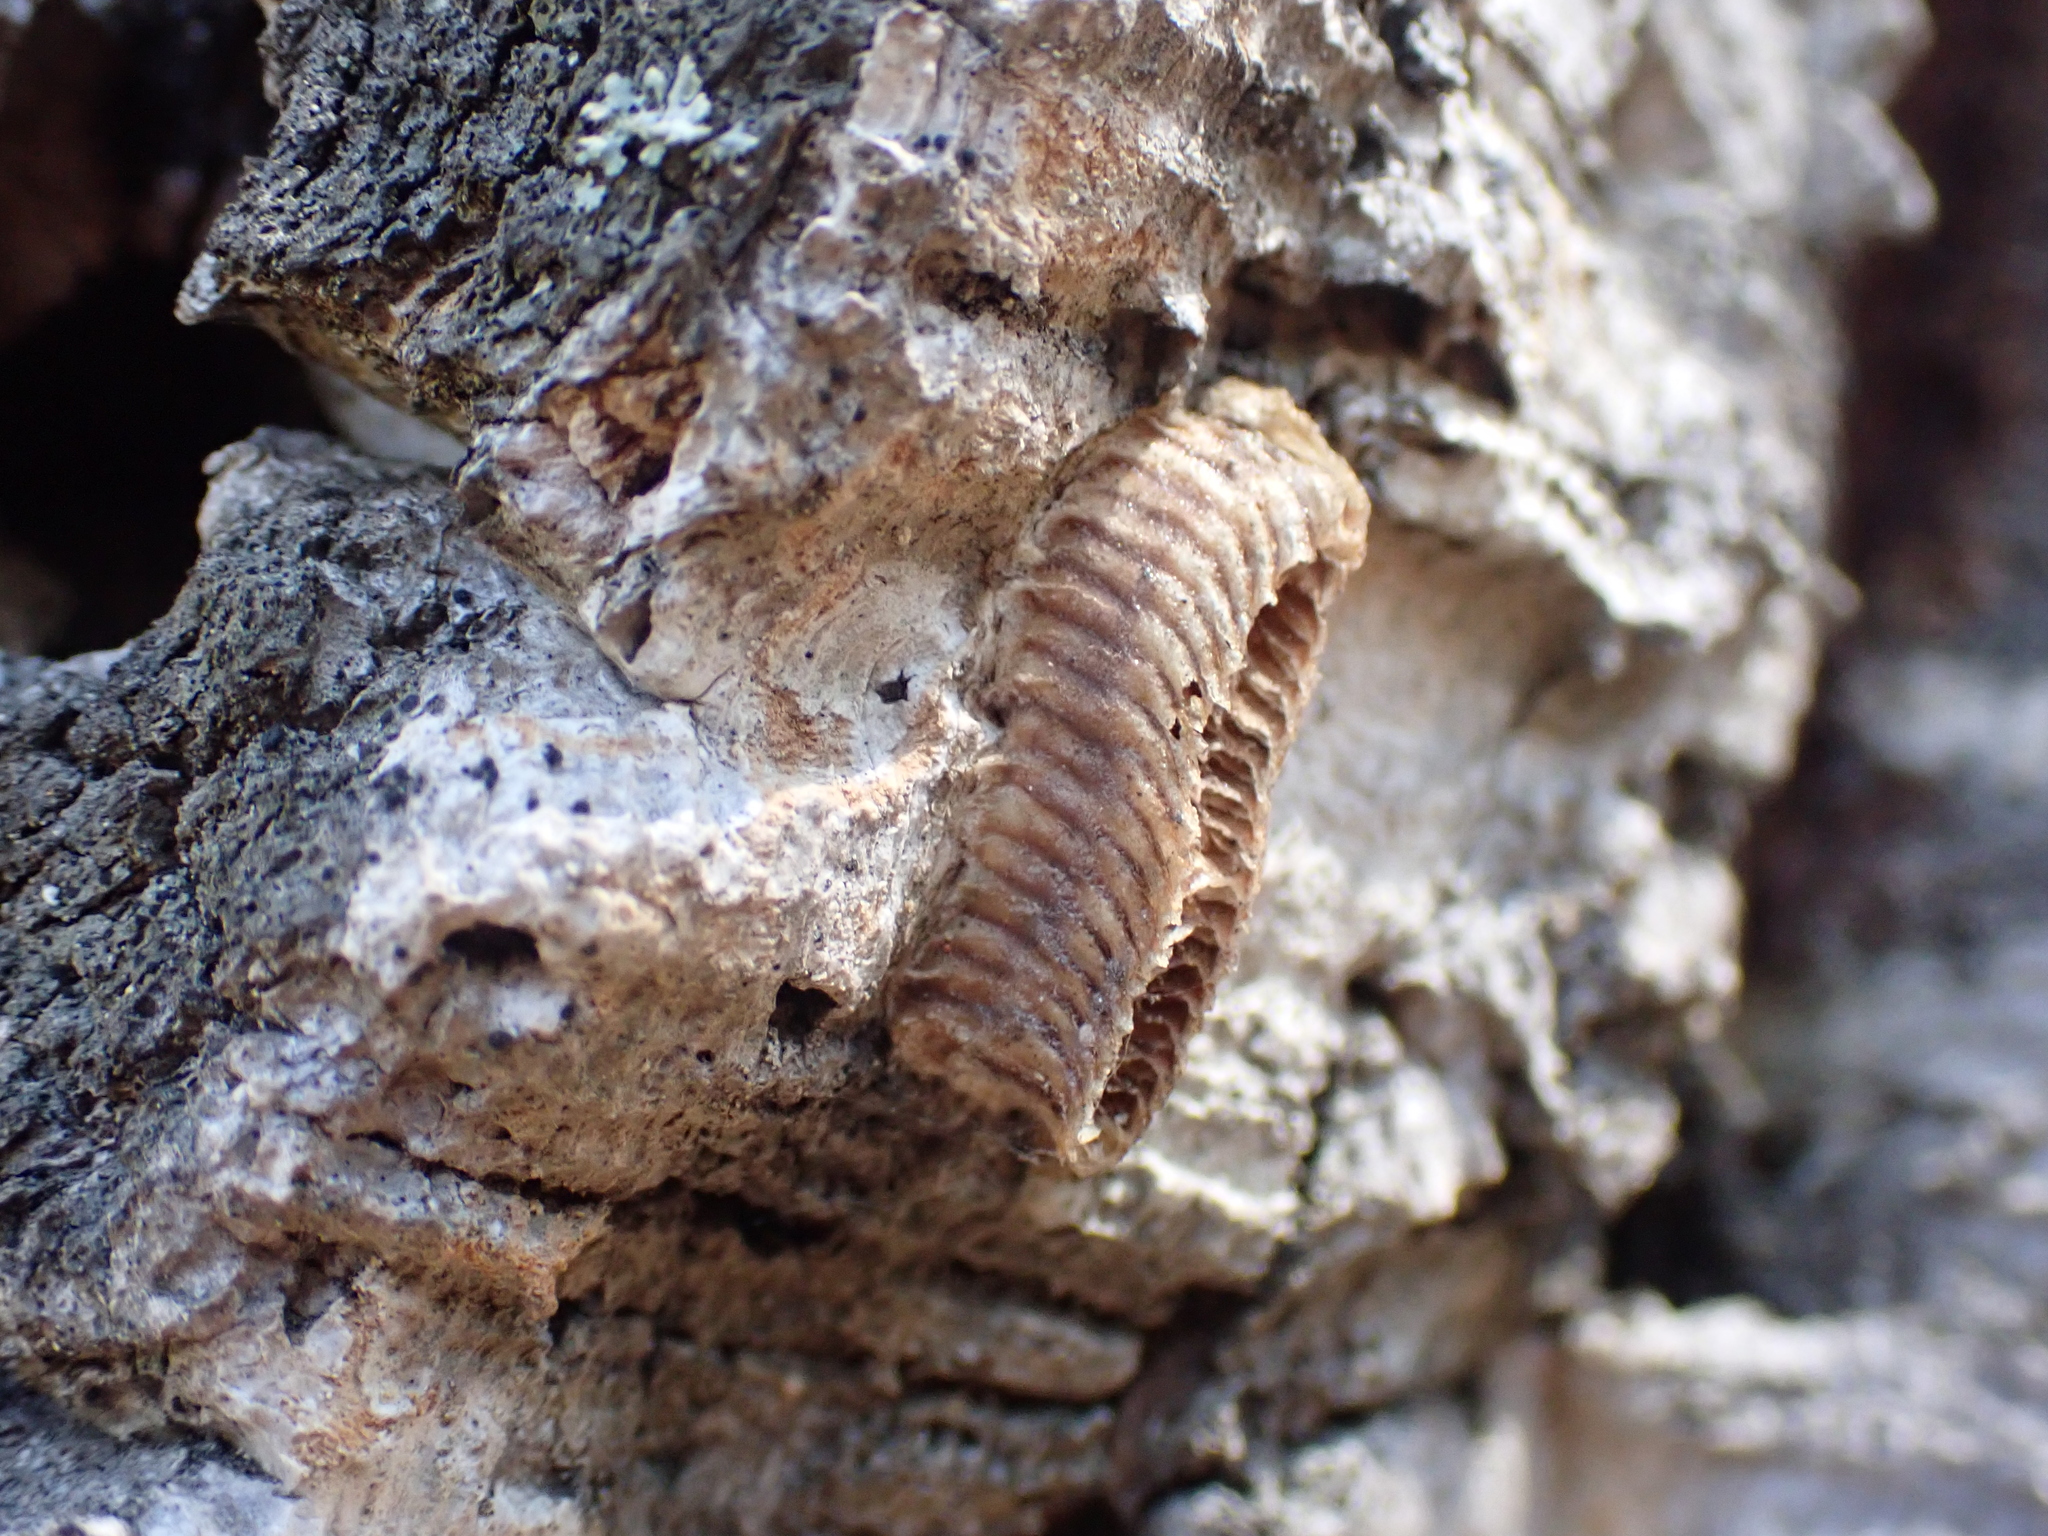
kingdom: Animalia
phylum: Arthropoda
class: Insecta
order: Mantodea
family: Eremiaphilidae
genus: Iris
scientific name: Iris oratoria
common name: Mediterranean mantis
